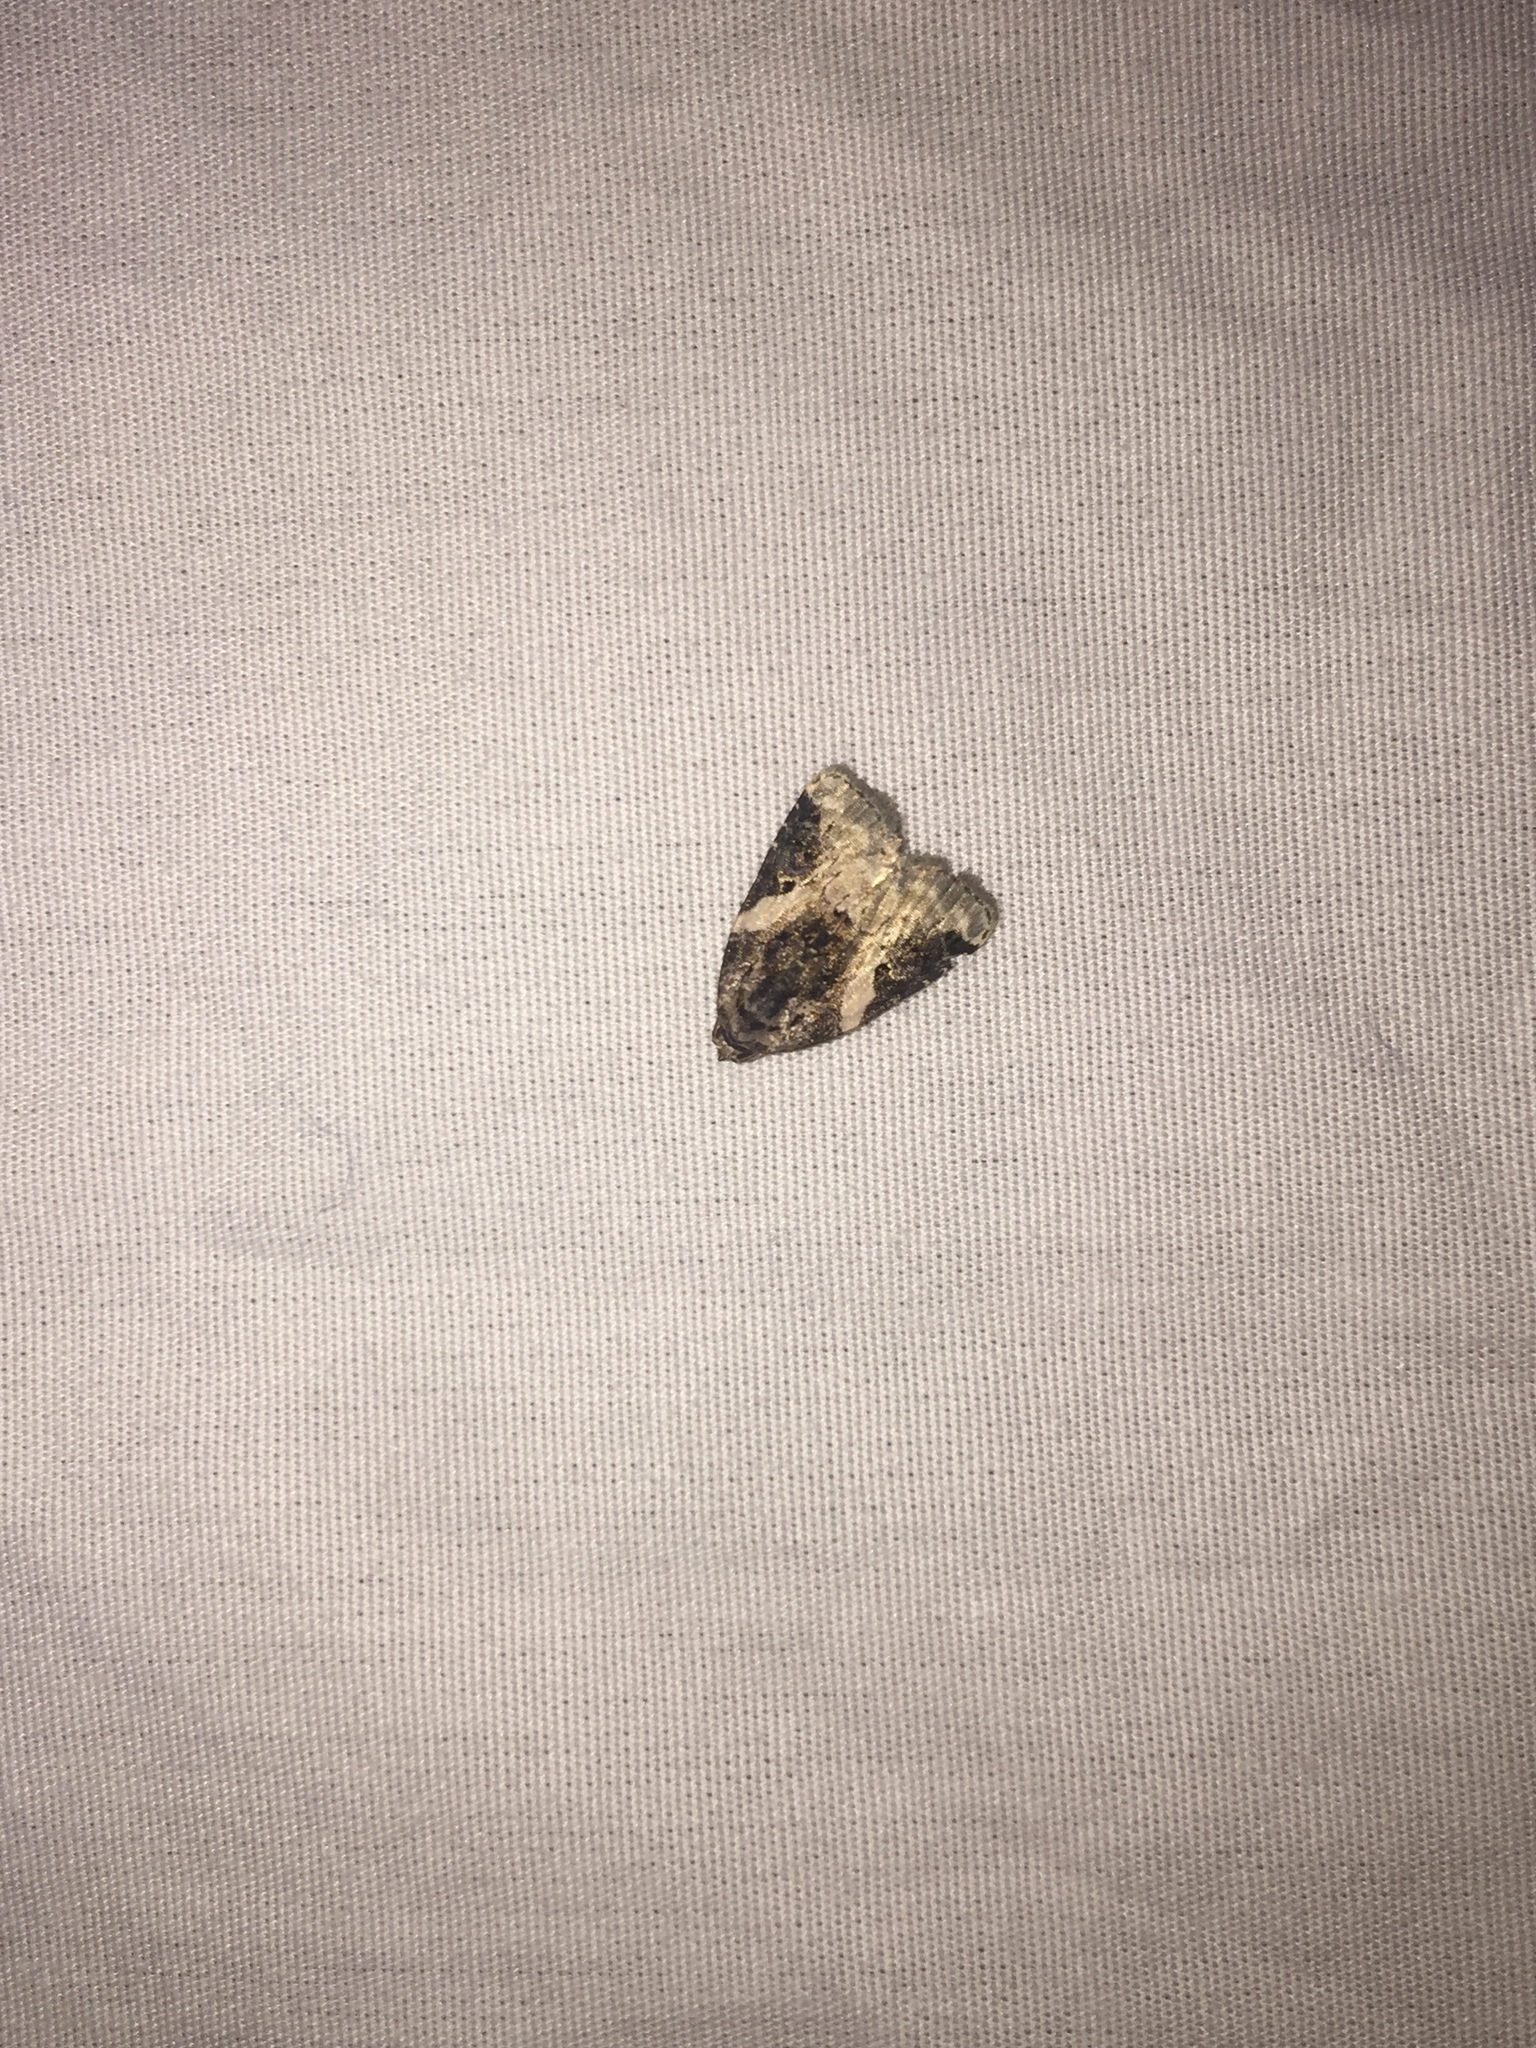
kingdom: Animalia
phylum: Arthropoda
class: Insecta
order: Lepidoptera
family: Noctuidae
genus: Pseudeustrotia
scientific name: Pseudeustrotia carneola
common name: Pink-barred lithacodia moth
